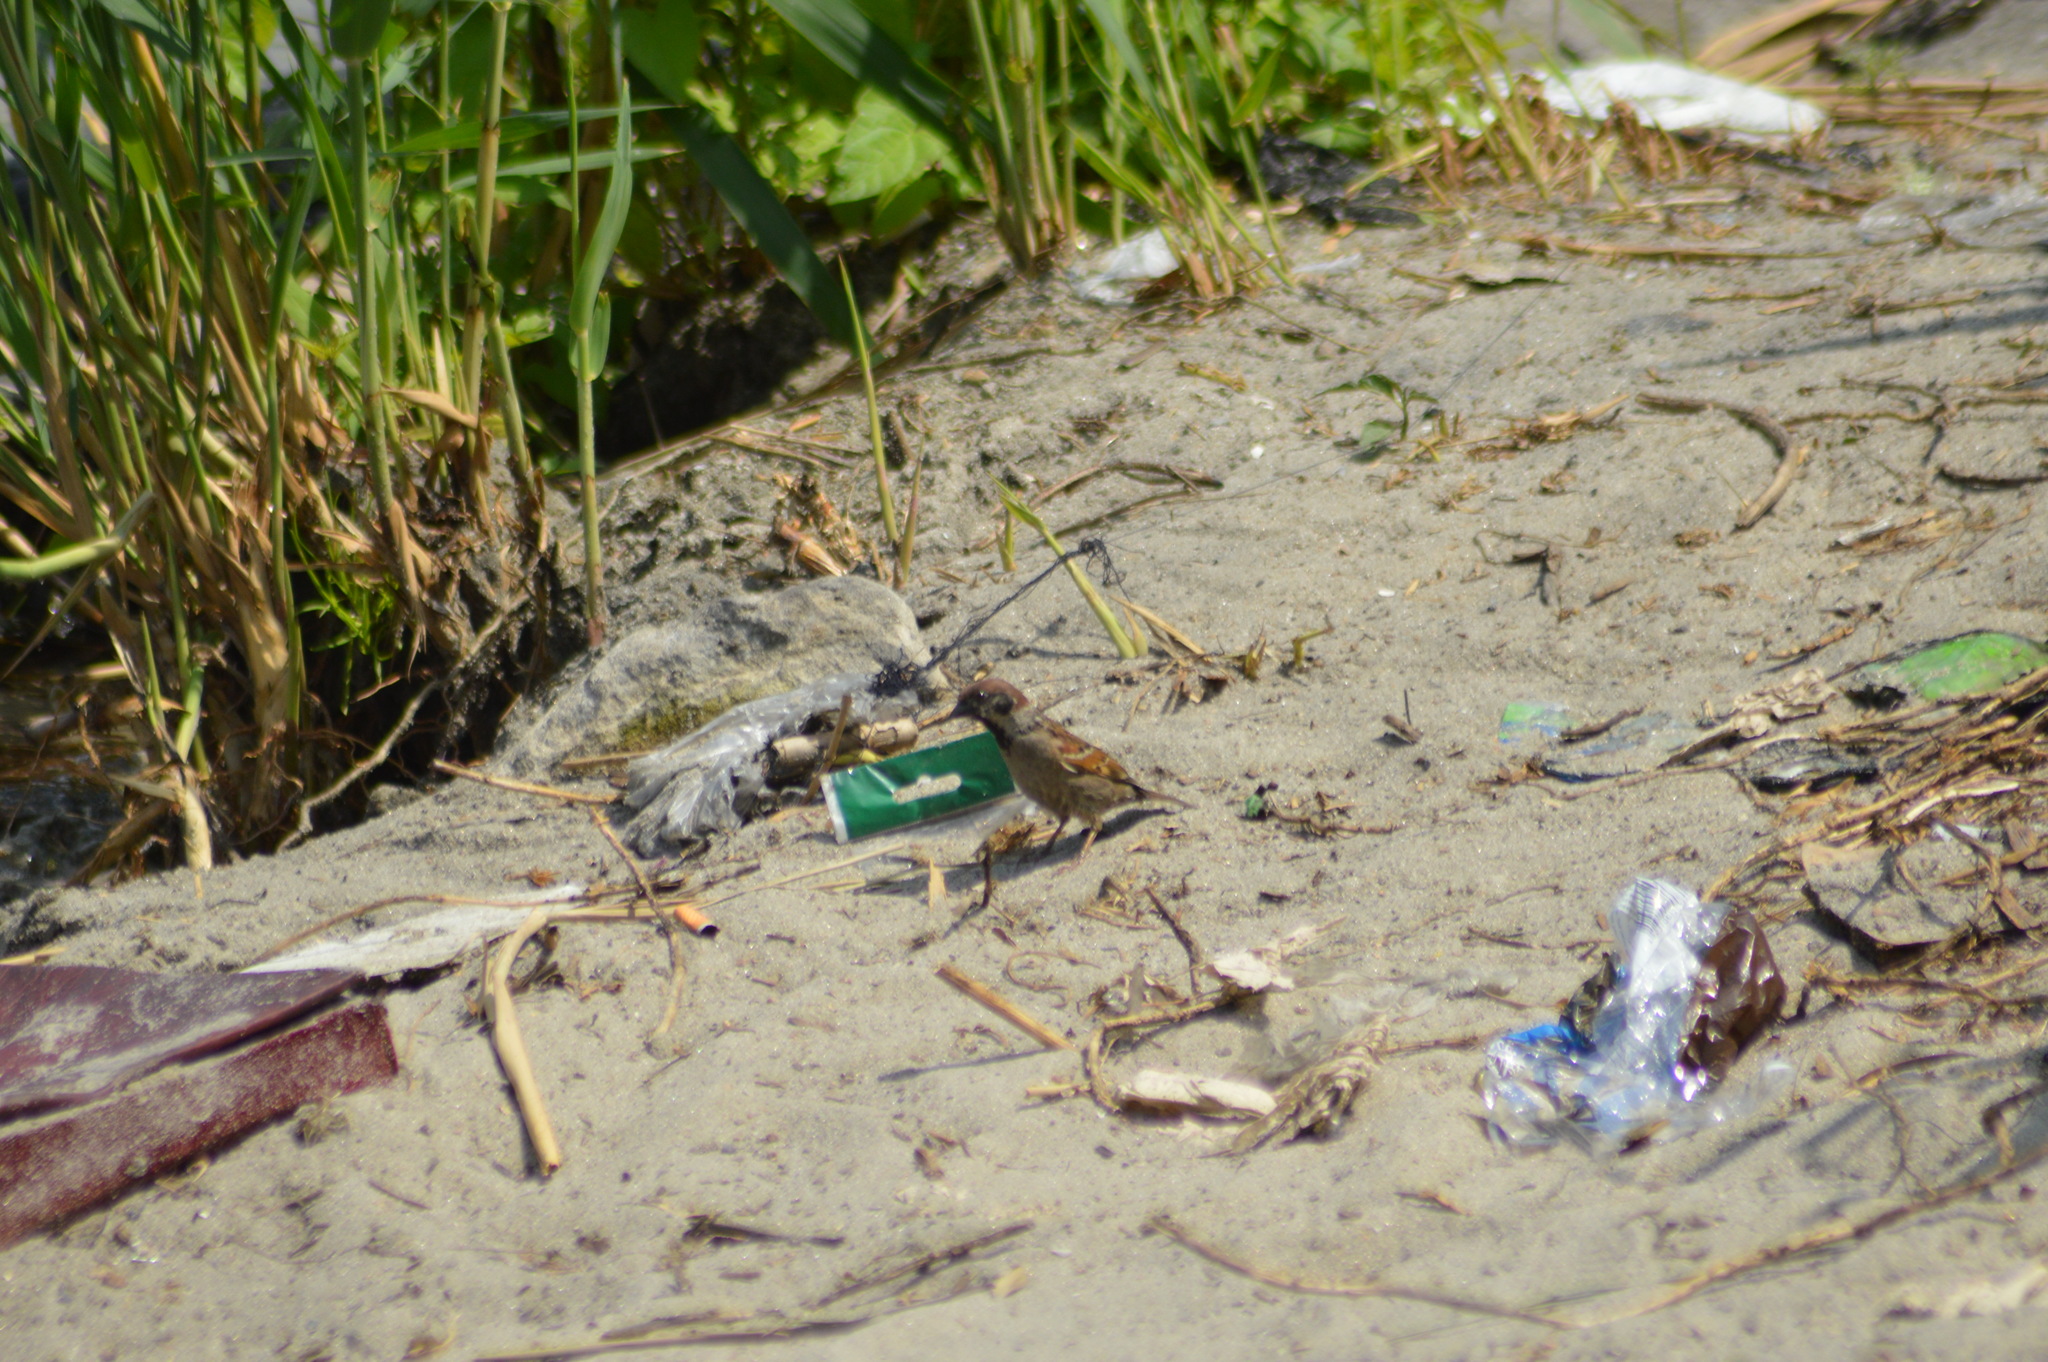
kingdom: Animalia
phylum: Chordata
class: Aves
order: Passeriformes
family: Passeridae
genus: Passer
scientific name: Passer montanus
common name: Eurasian tree sparrow
